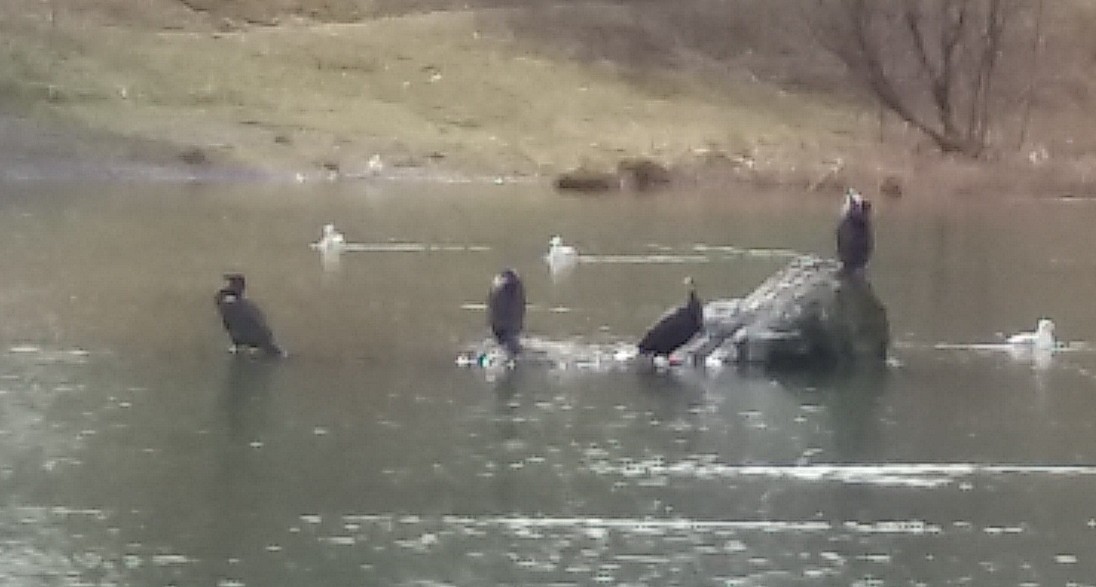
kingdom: Animalia
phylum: Chordata
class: Aves
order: Suliformes
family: Phalacrocoracidae
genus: Phalacrocorax
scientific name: Phalacrocorax carbo
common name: Great cormorant
